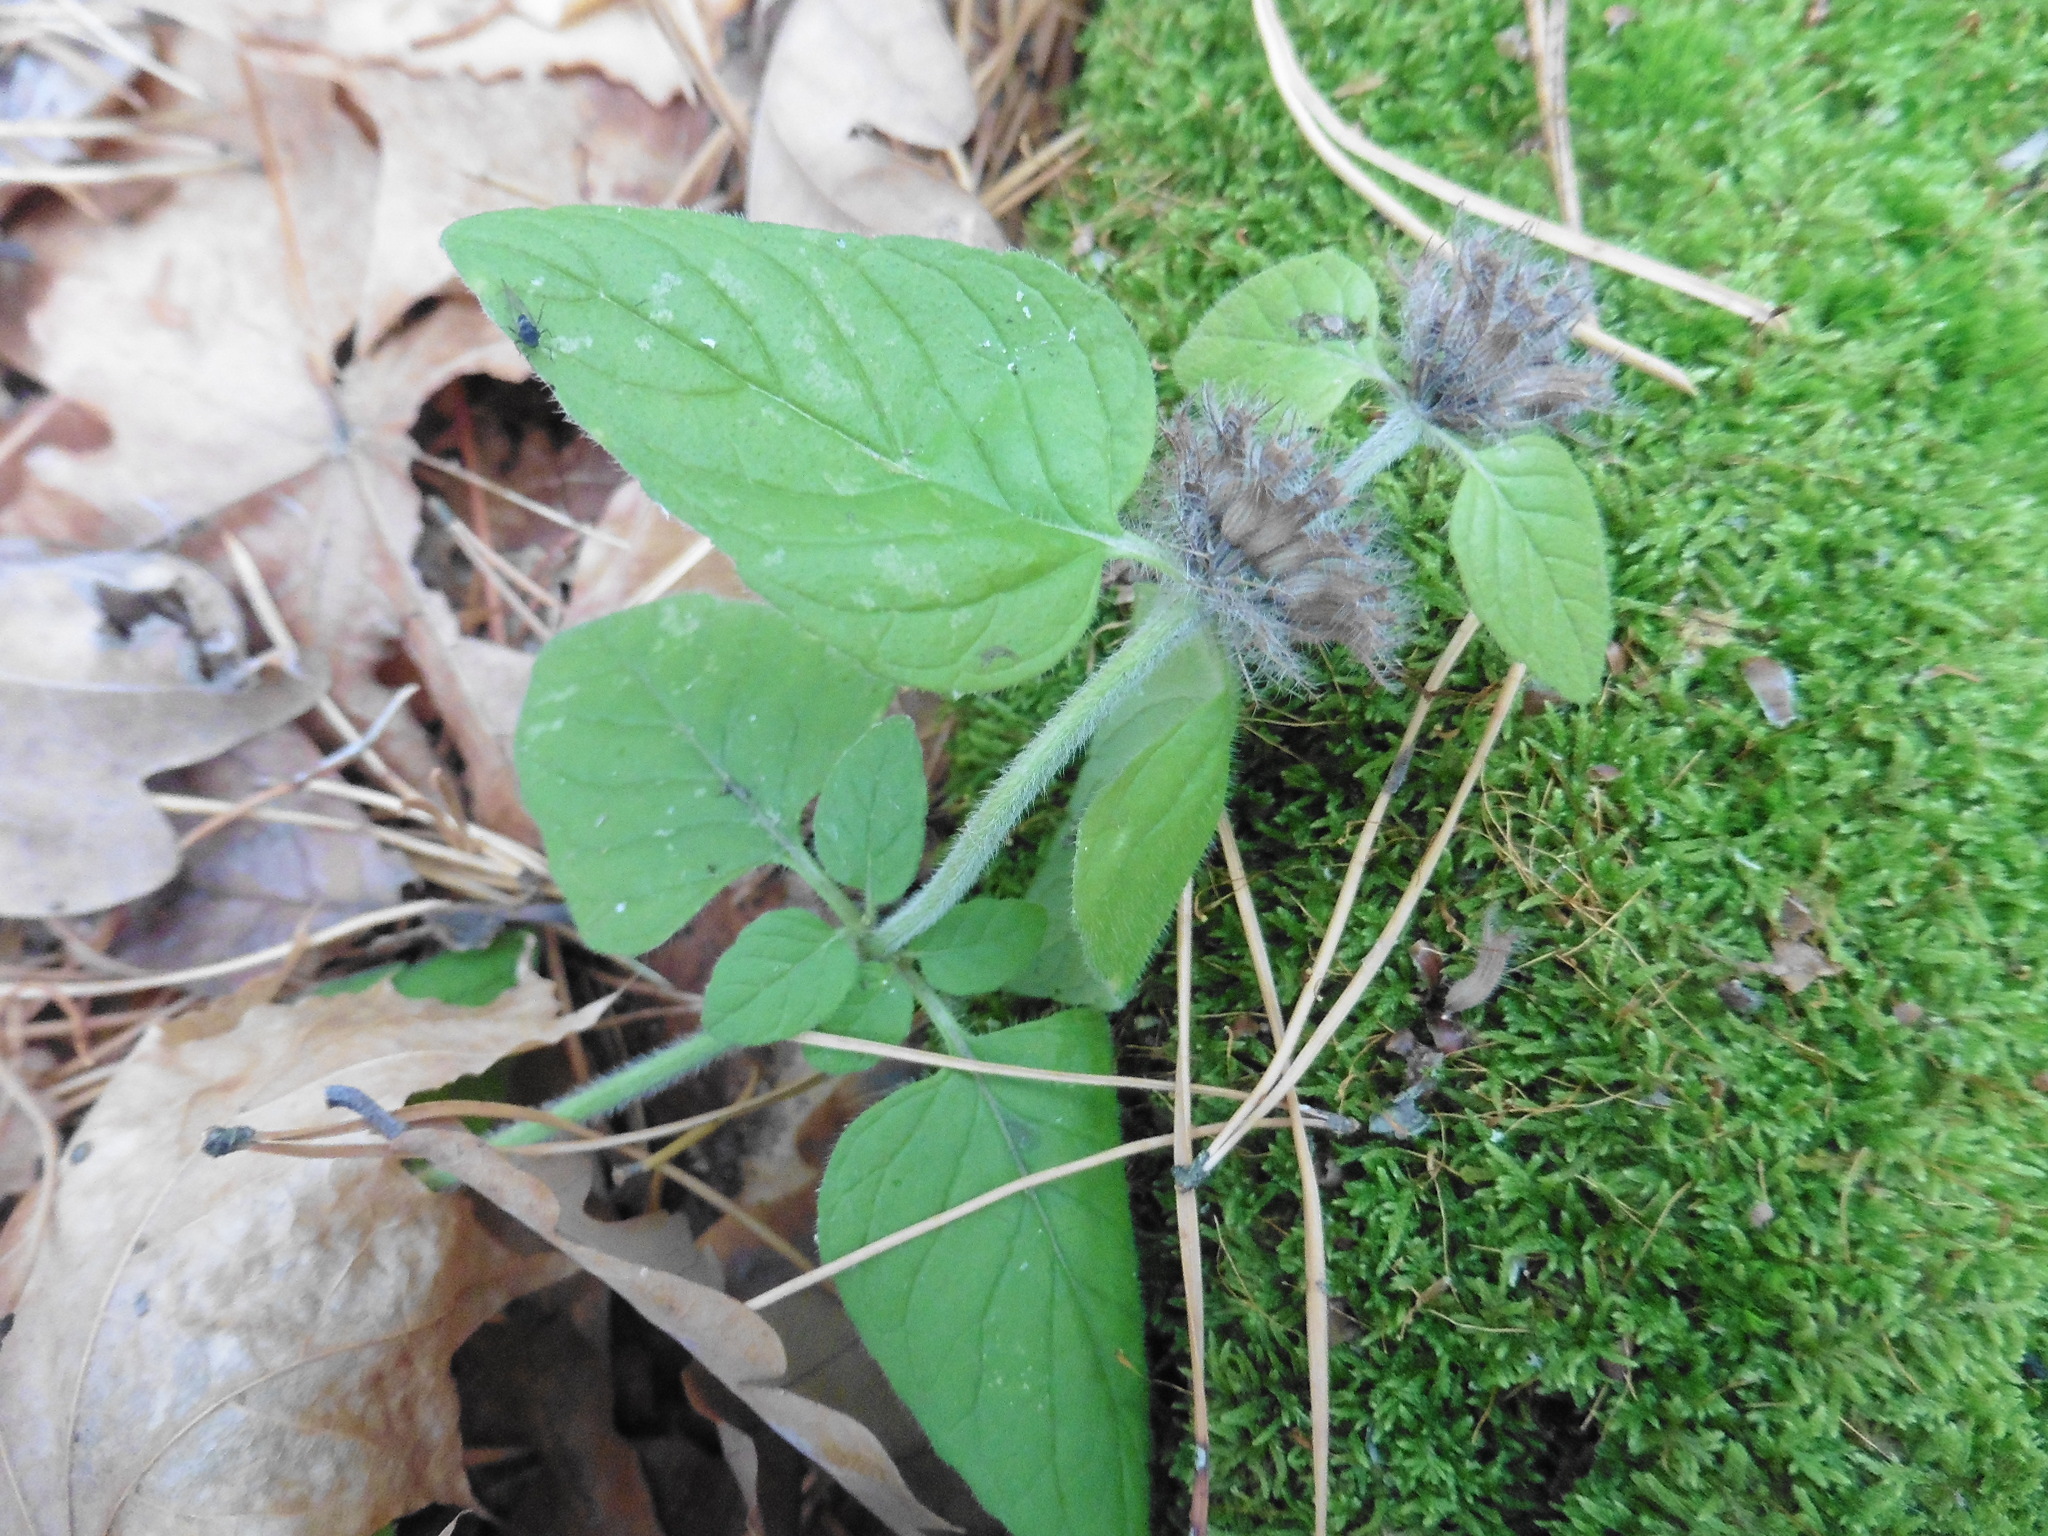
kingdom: Plantae
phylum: Tracheophyta
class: Magnoliopsida
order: Lamiales
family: Lamiaceae
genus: Clinopodium
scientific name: Clinopodium vulgare
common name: Wild basil
